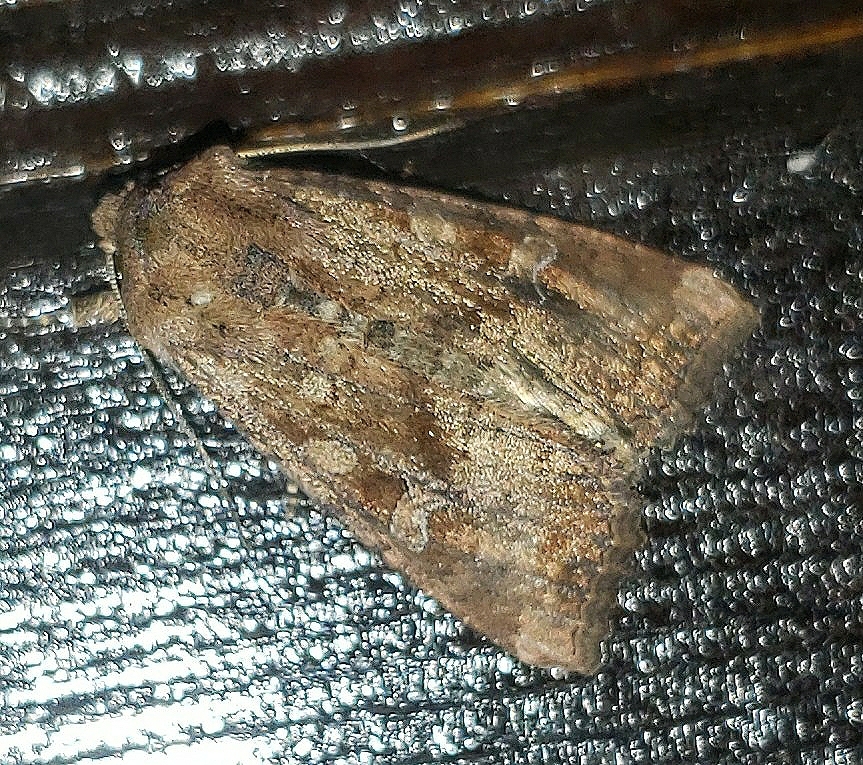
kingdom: Animalia
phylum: Arthropoda
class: Insecta
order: Lepidoptera
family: Noctuidae
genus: Loscopia
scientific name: Loscopia velata
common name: Veiled ear moth
